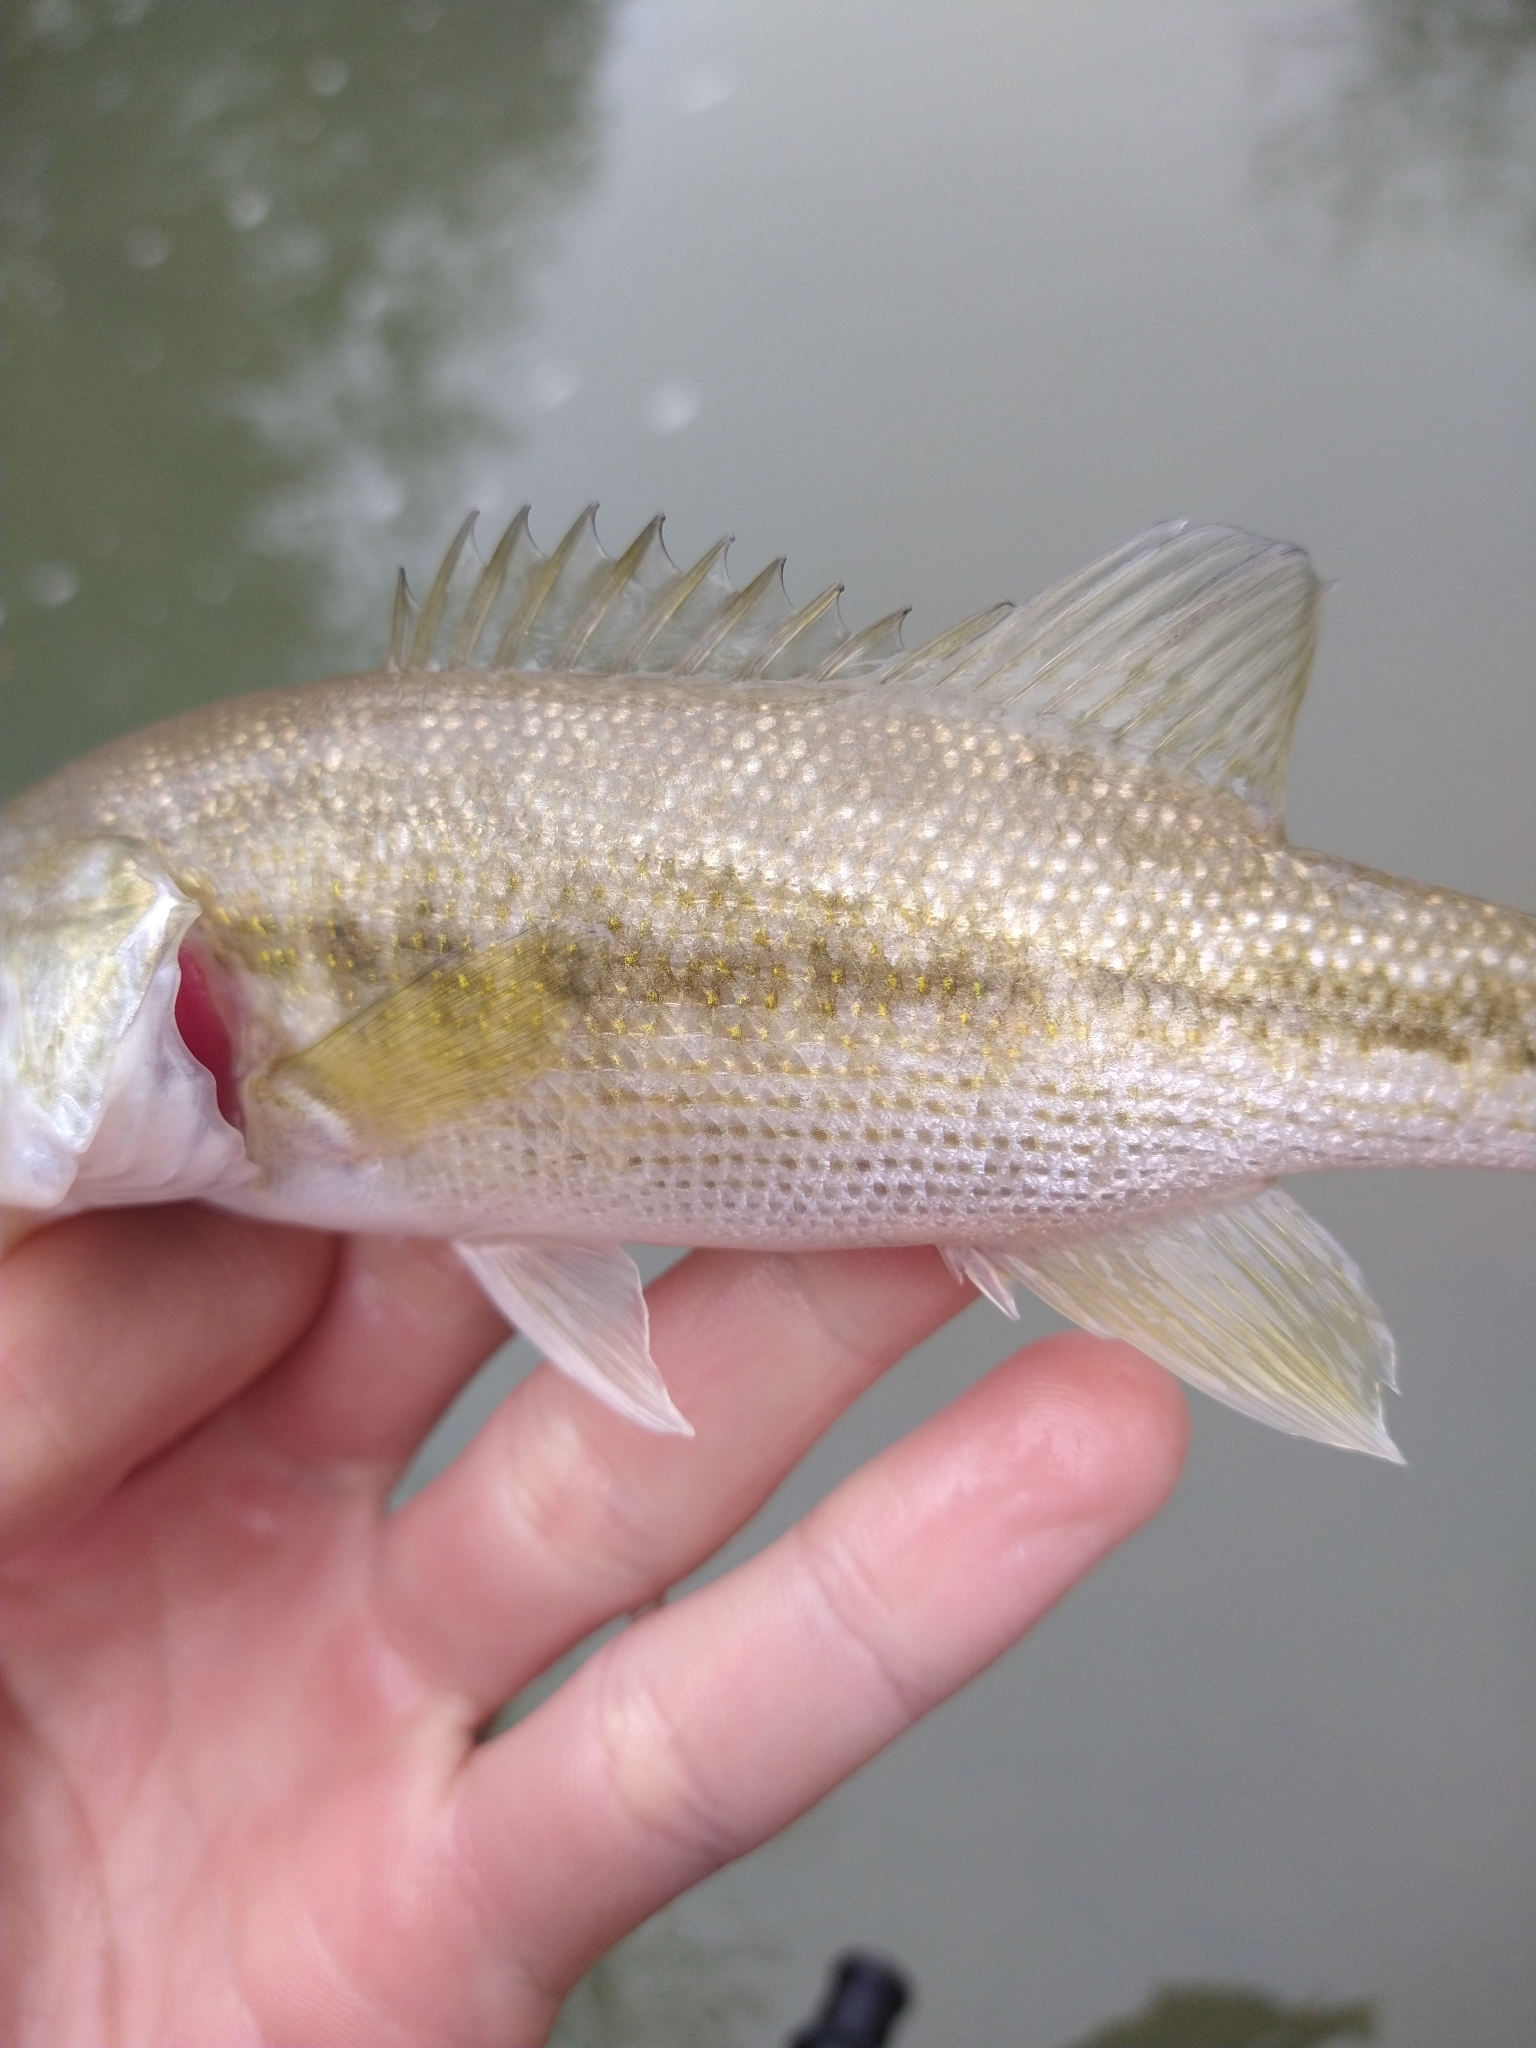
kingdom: Animalia
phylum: Chordata
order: Perciformes
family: Centrarchidae
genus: Micropterus
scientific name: Micropterus treculii
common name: Guadalupe bass
